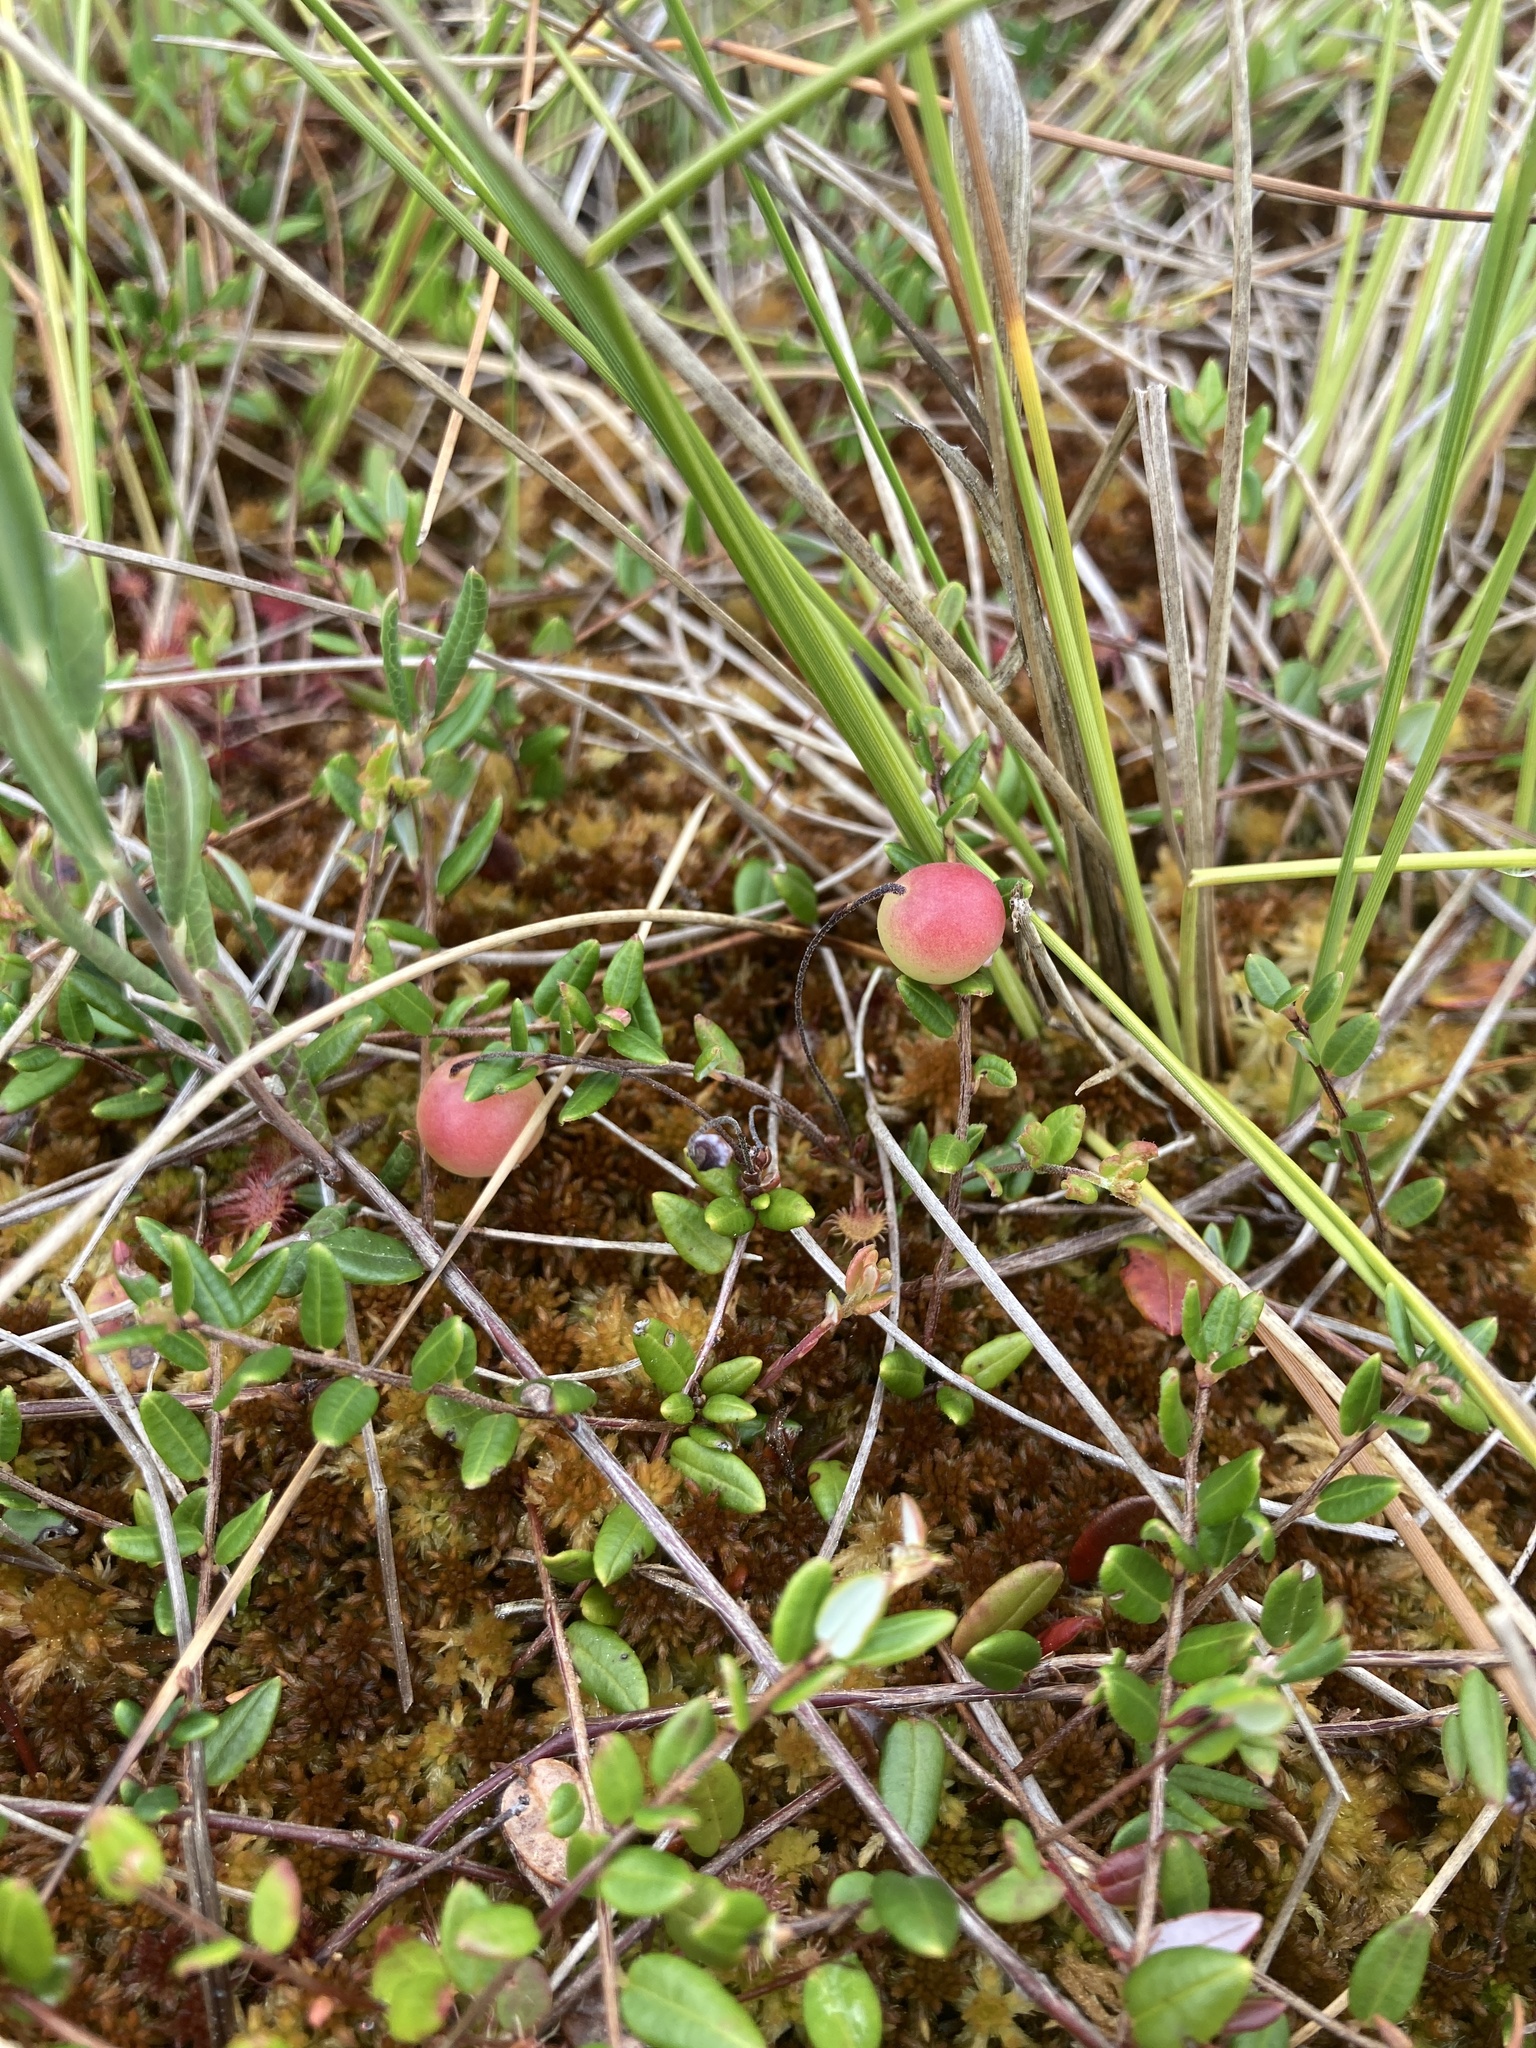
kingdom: Plantae
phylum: Tracheophyta
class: Magnoliopsida
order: Ericales
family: Ericaceae
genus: Vaccinium
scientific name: Vaccinium oxycoccos
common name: Cranberry
